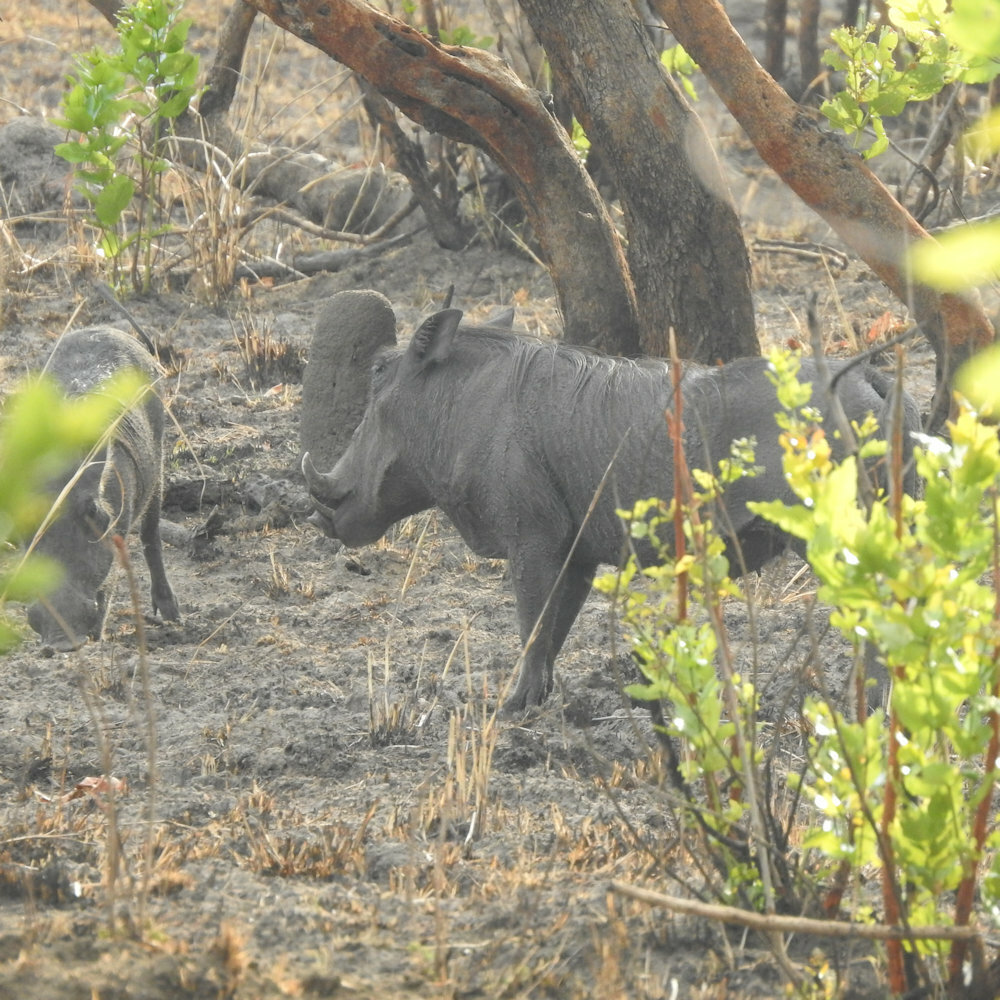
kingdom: Animalia
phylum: Chordata
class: Mammalia
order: Artiodactyla
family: Suidae
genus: Phacochoerus
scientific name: Phacochoerus africanus
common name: Common warthog
